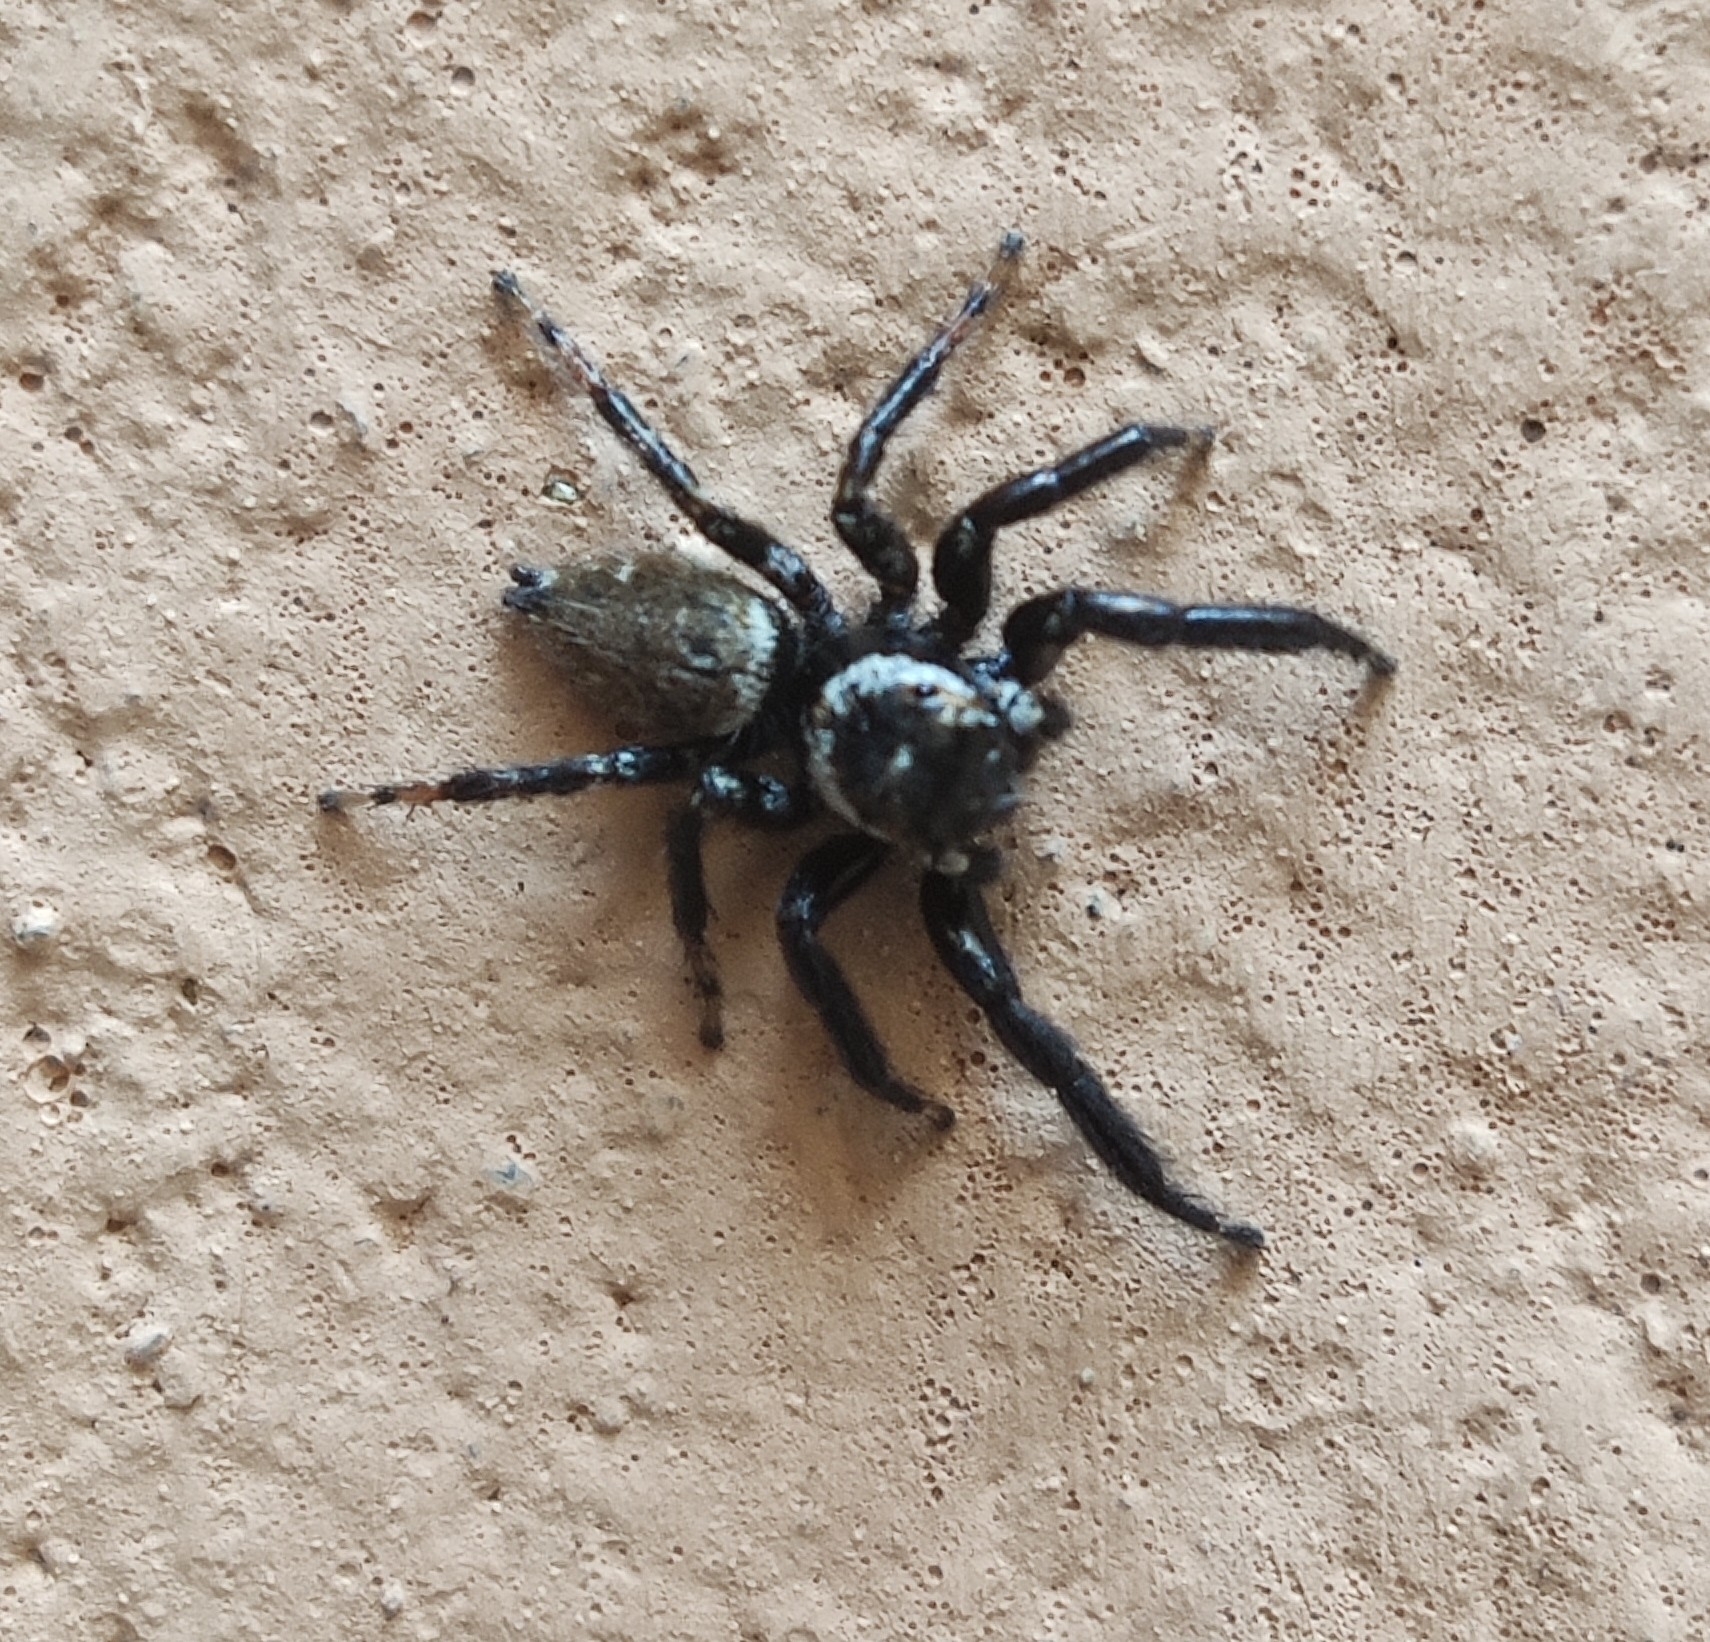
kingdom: Animalia
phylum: Arthropoda
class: Arachnida
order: Araneae
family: Salticidae
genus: Evarcha
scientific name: Evarcha jucunda
